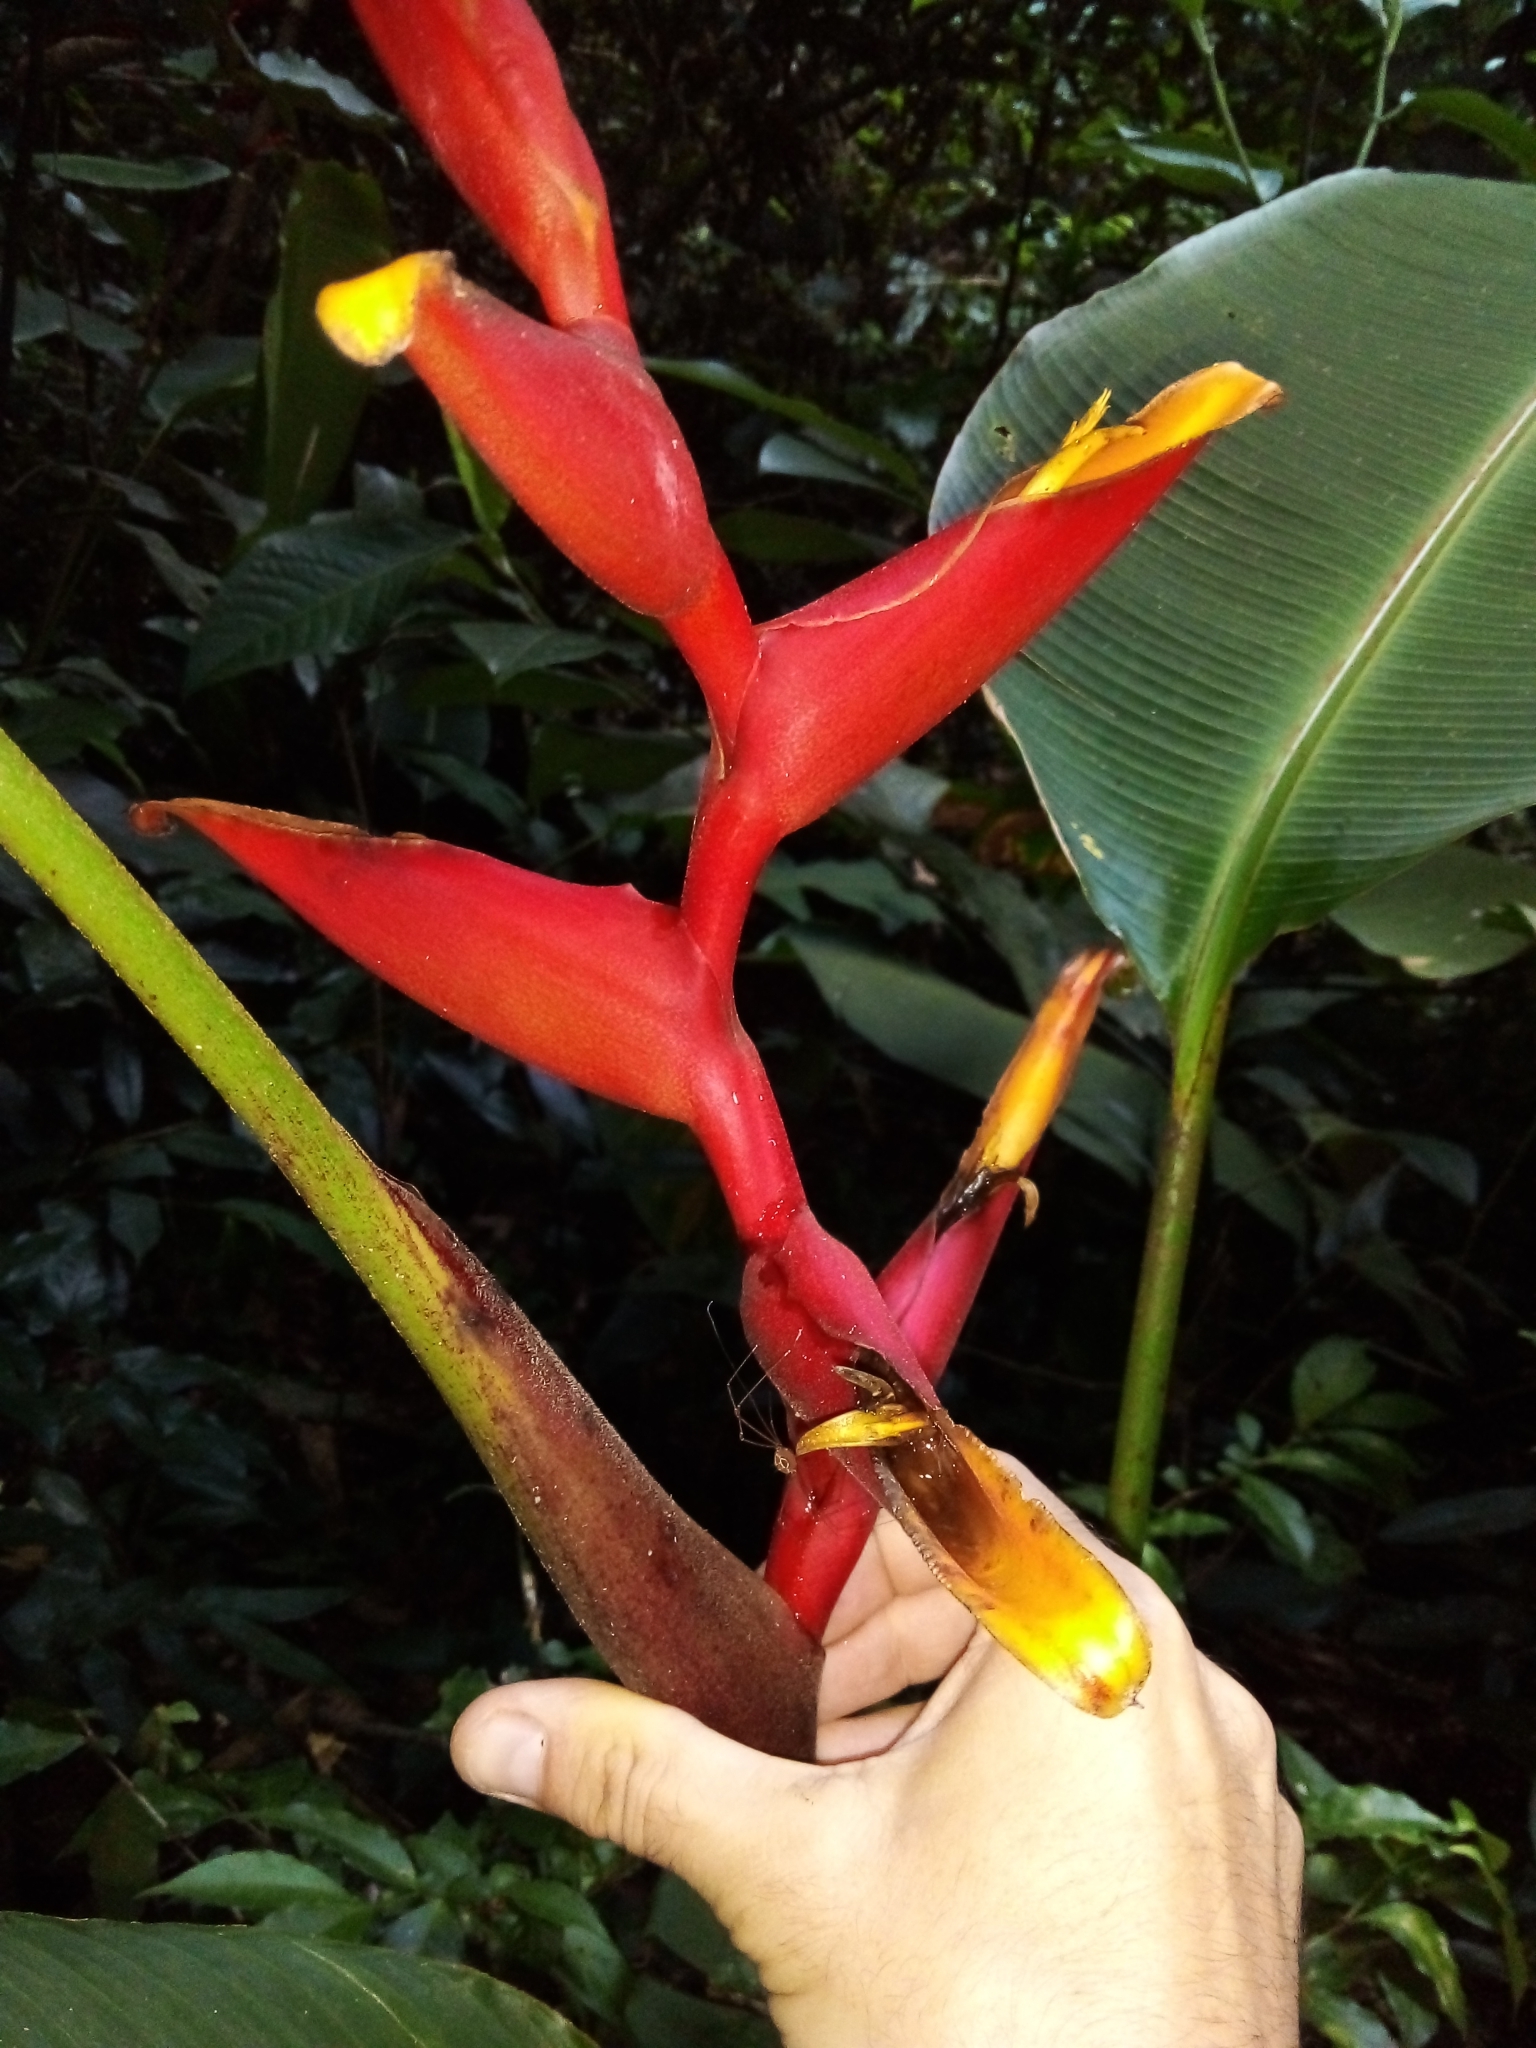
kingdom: Plantae
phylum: Tracheophyta
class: Liliopsida
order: Zingiberales
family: Heliconiaceae
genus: Heliconia
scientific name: Heliconia spathocircinata
